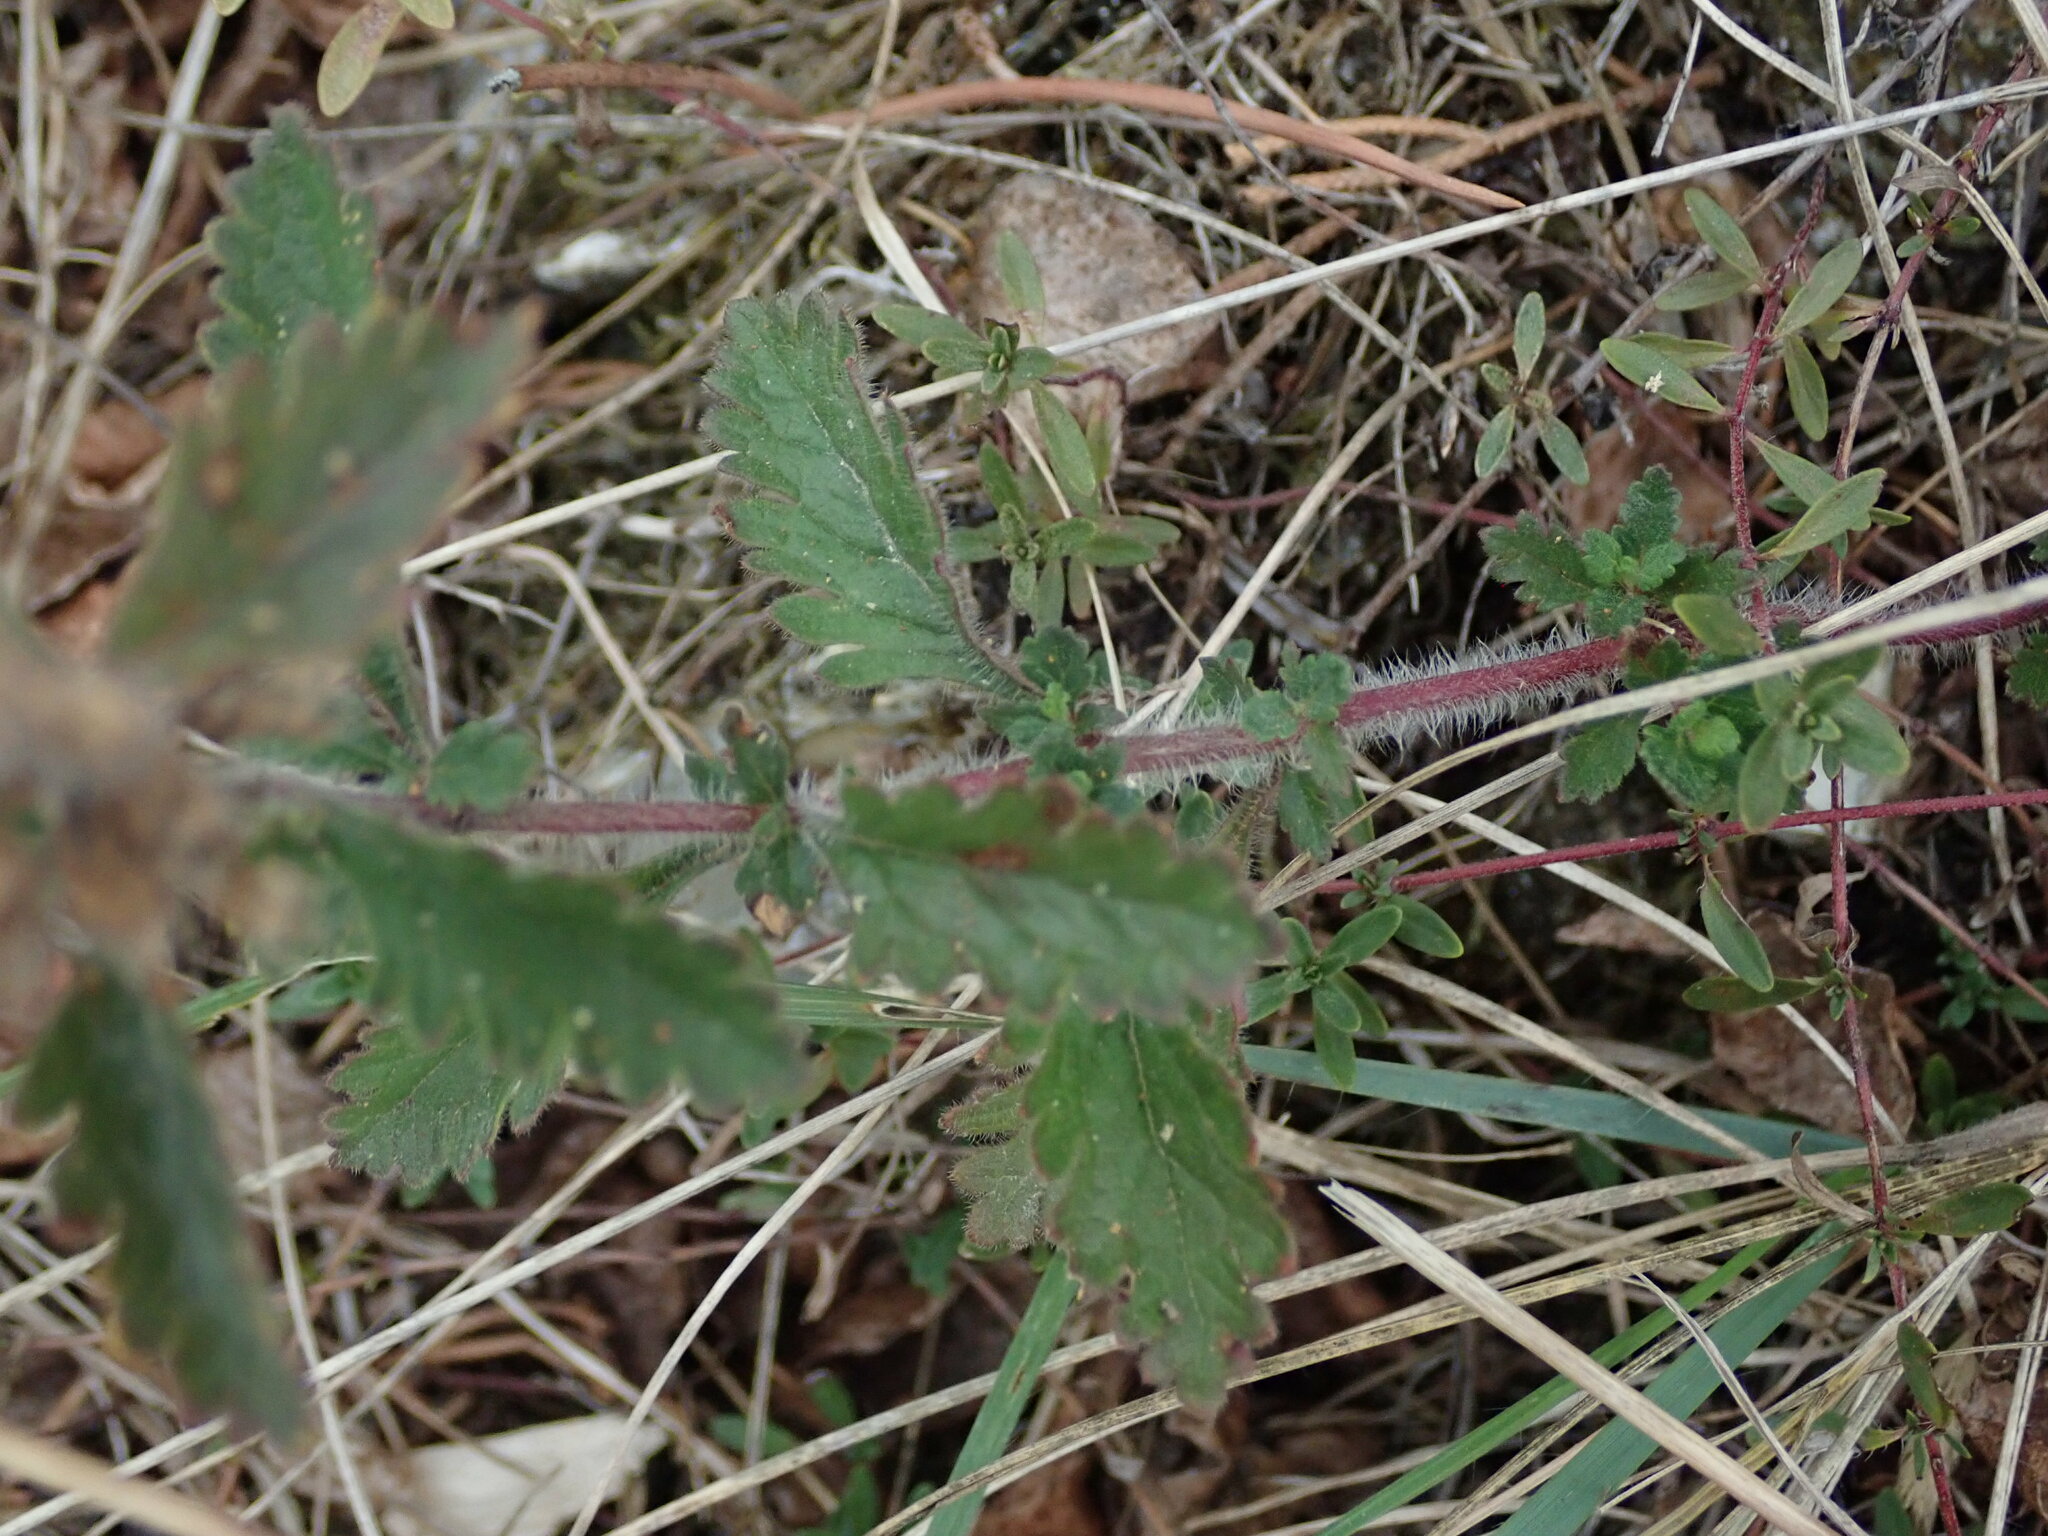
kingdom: Plantae
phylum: Tracheophyta
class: Magnoliopsida
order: Lamiales
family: Lamiaceae
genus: Teucrium
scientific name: Teucrium chamaedrys
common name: Wall germander
